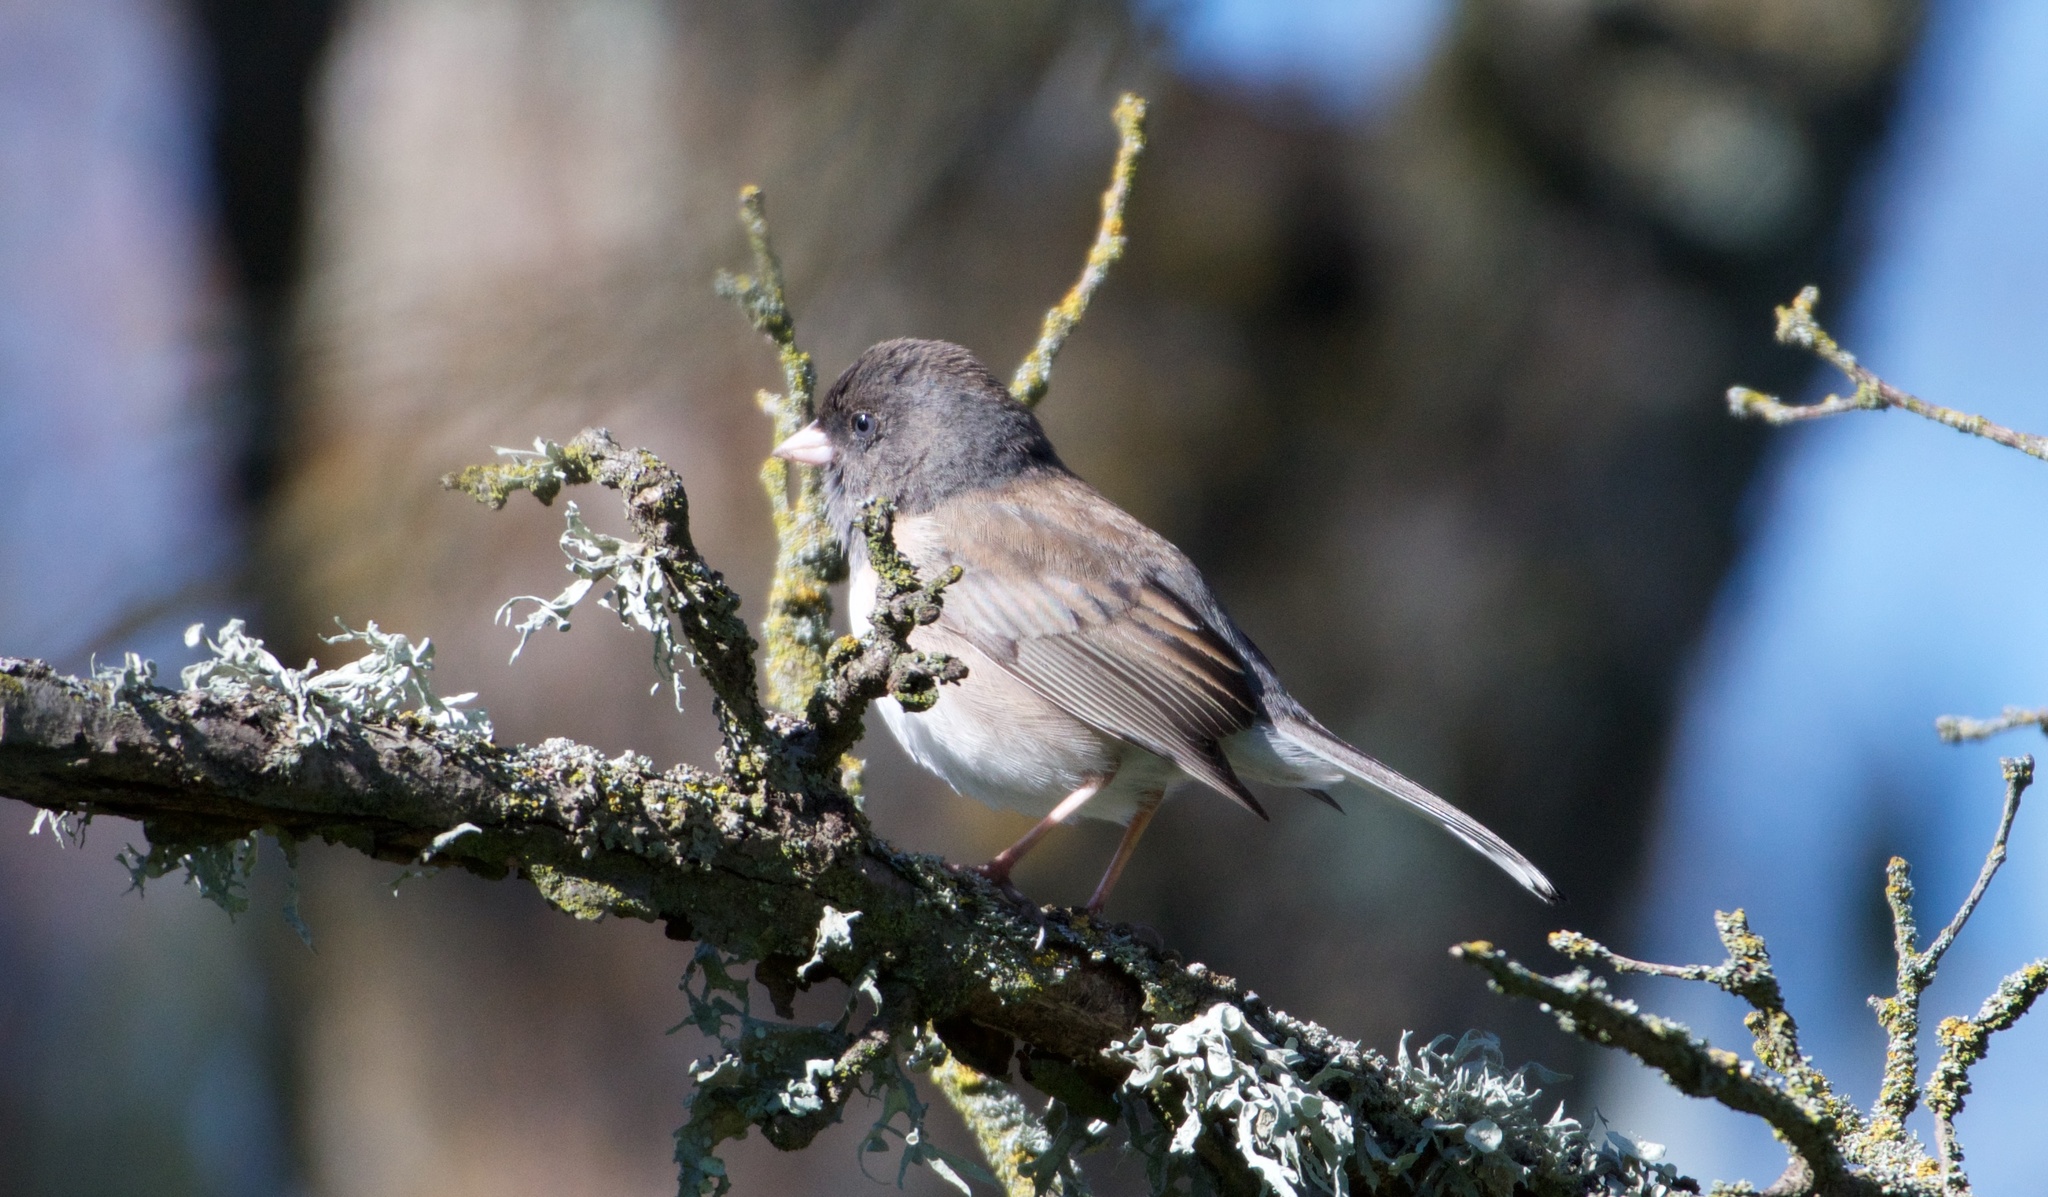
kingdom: Animalia
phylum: Chordata
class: Aves
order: Passeriformes
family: Passerellidae
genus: Junco
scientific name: Junco hyemalis
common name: Dark-eyed junco
